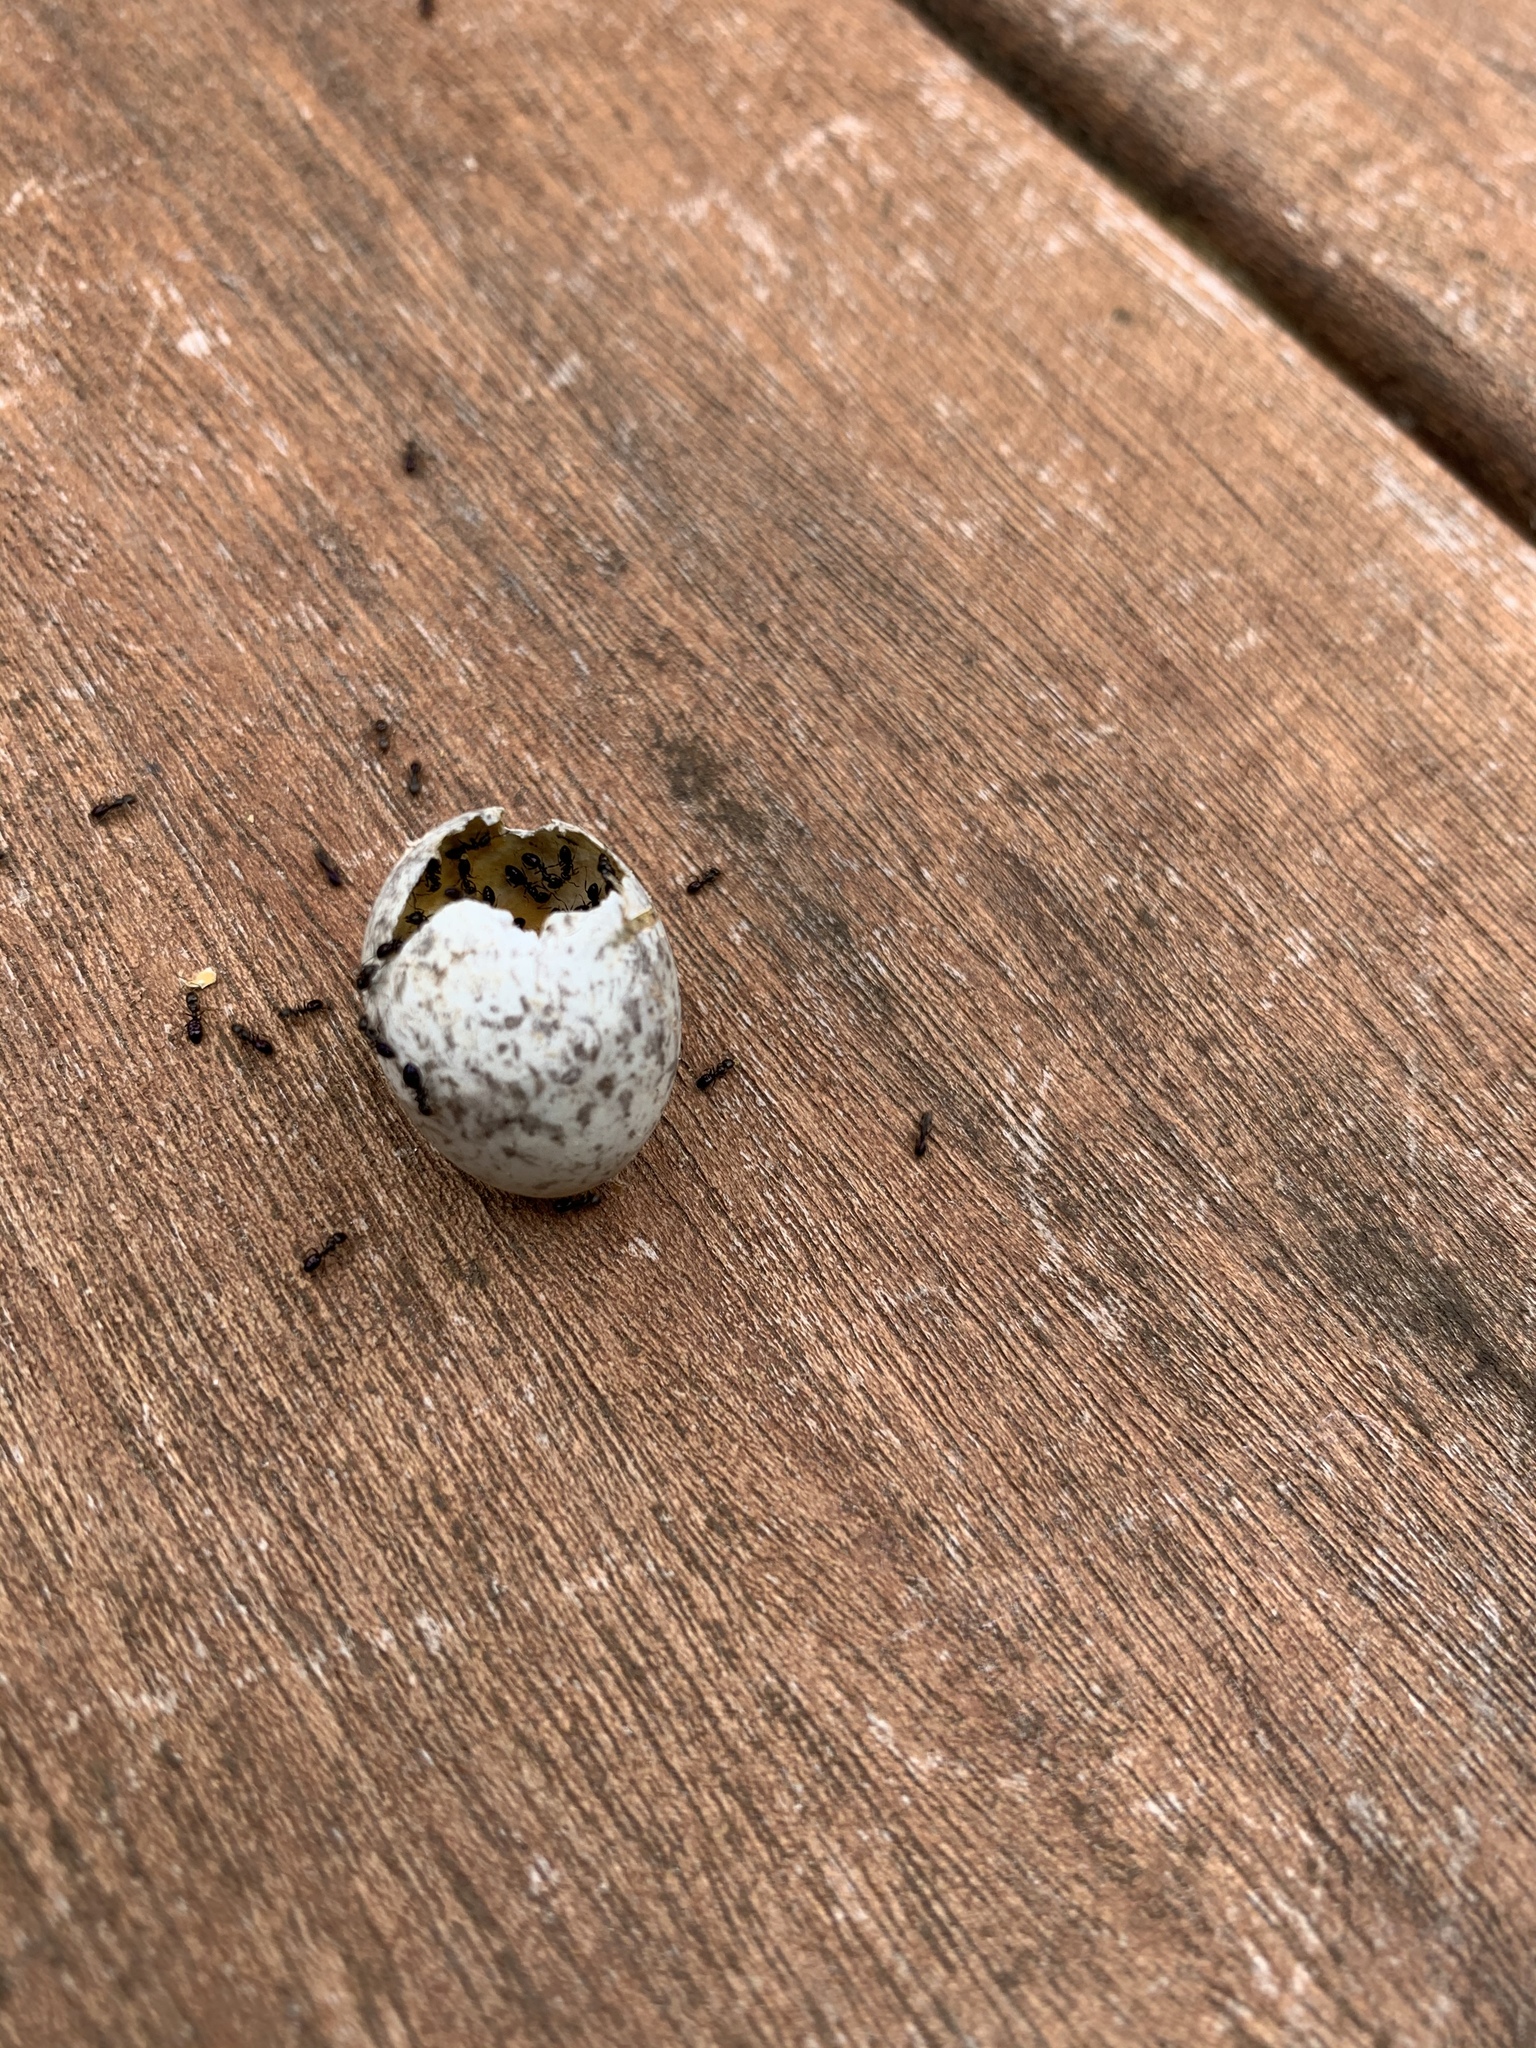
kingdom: Animalia
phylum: Chordata
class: Aves
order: Passeriformes
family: Passeridae
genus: Passer
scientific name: Passer domesticus
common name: House sparrow
